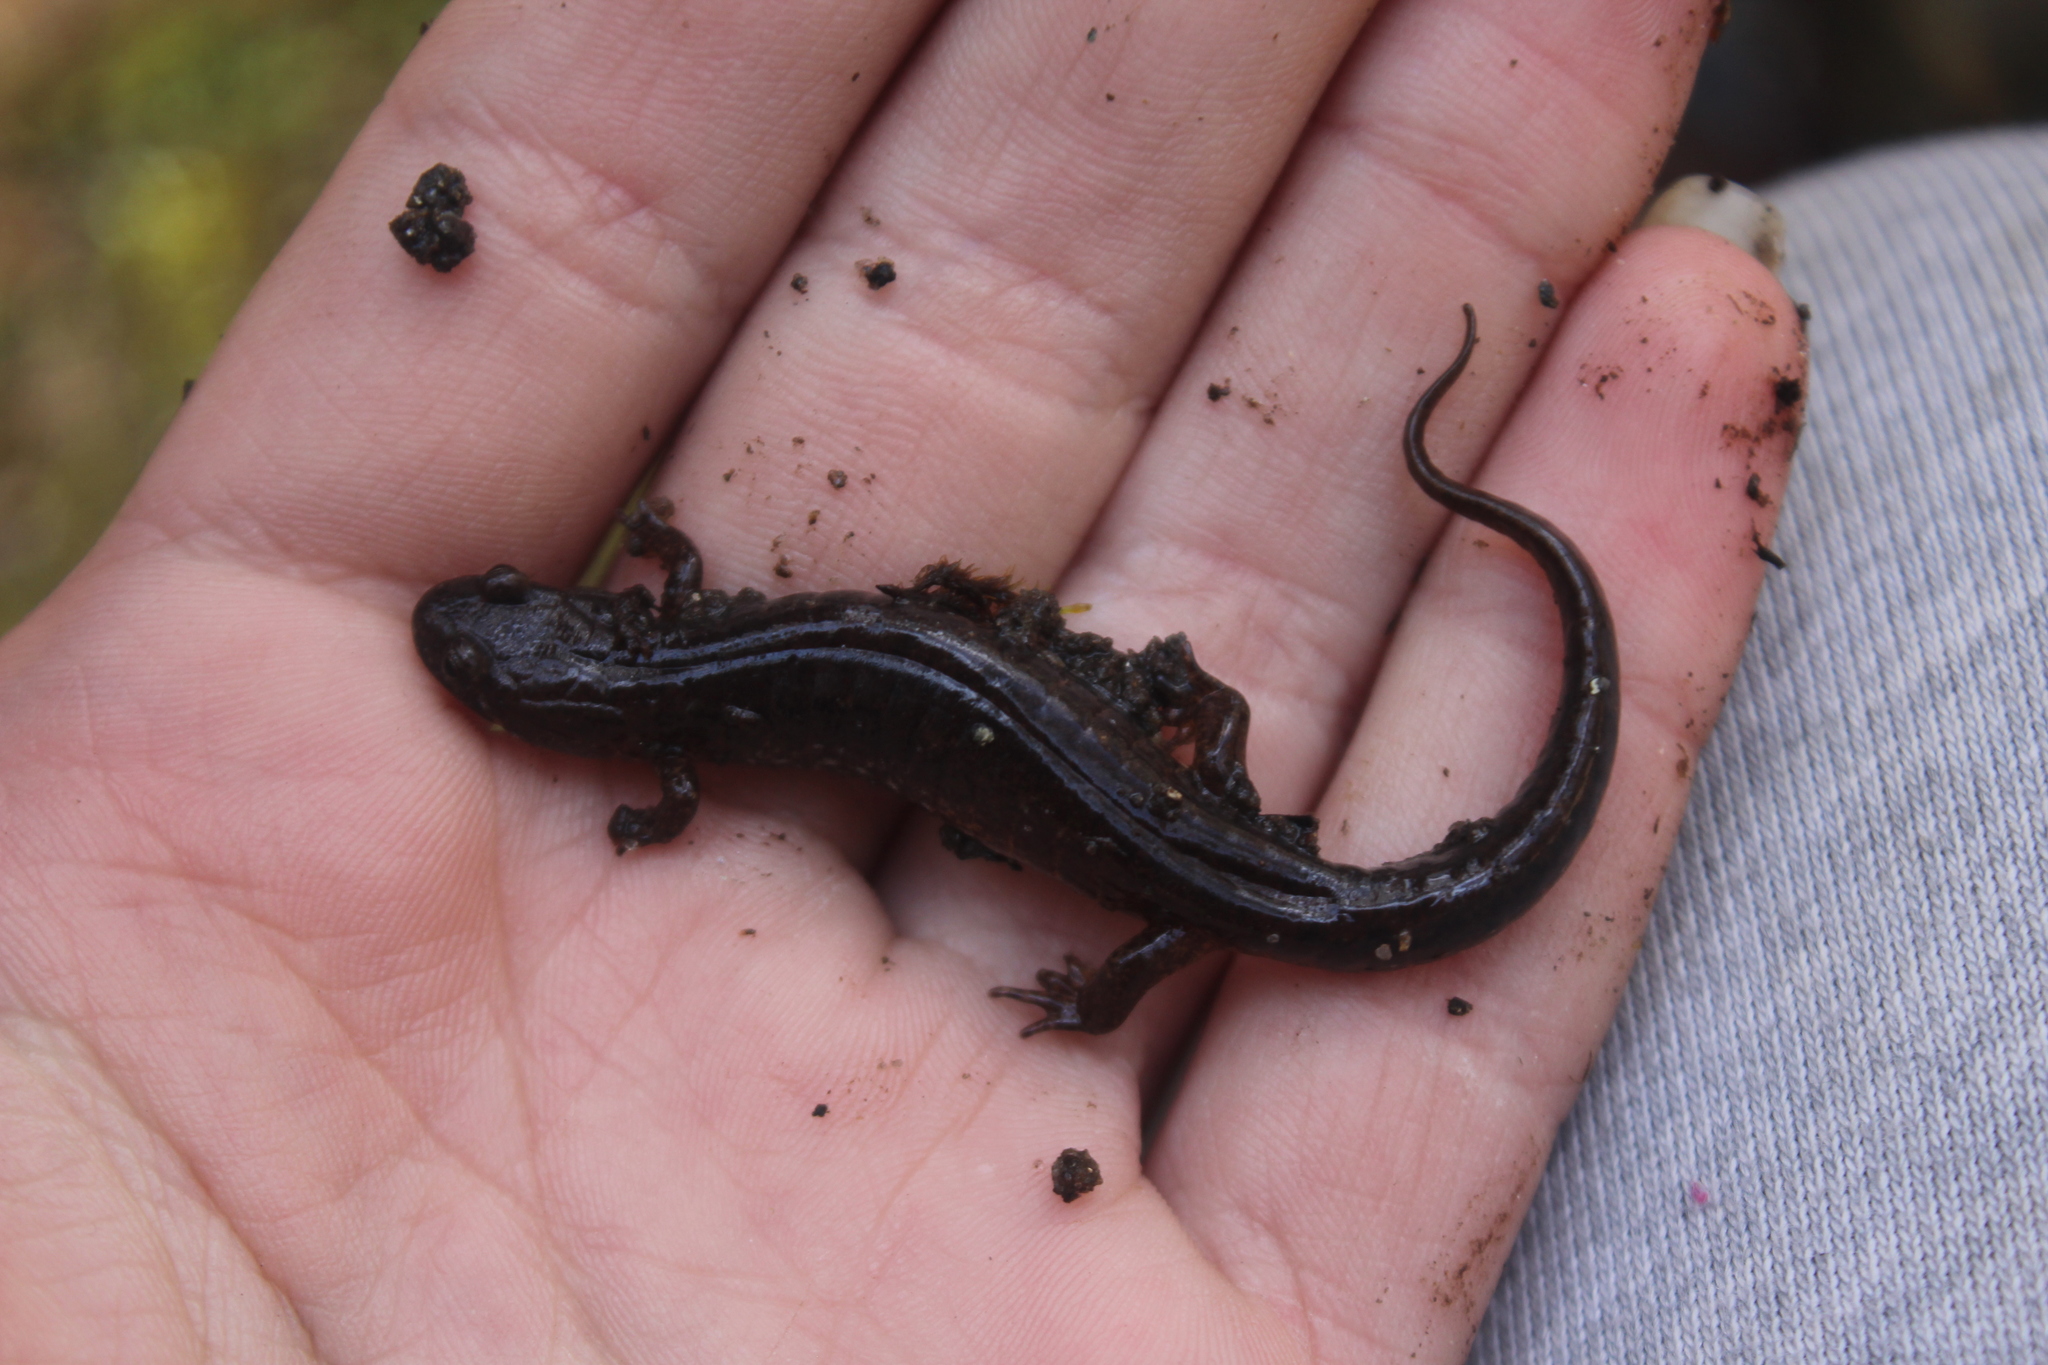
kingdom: Animalia
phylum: Chordata
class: Amphibia
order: Caudata
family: Plethodontidae
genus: Desmognathus
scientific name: Desmognathus fuscus
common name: Northern dusky salamander
